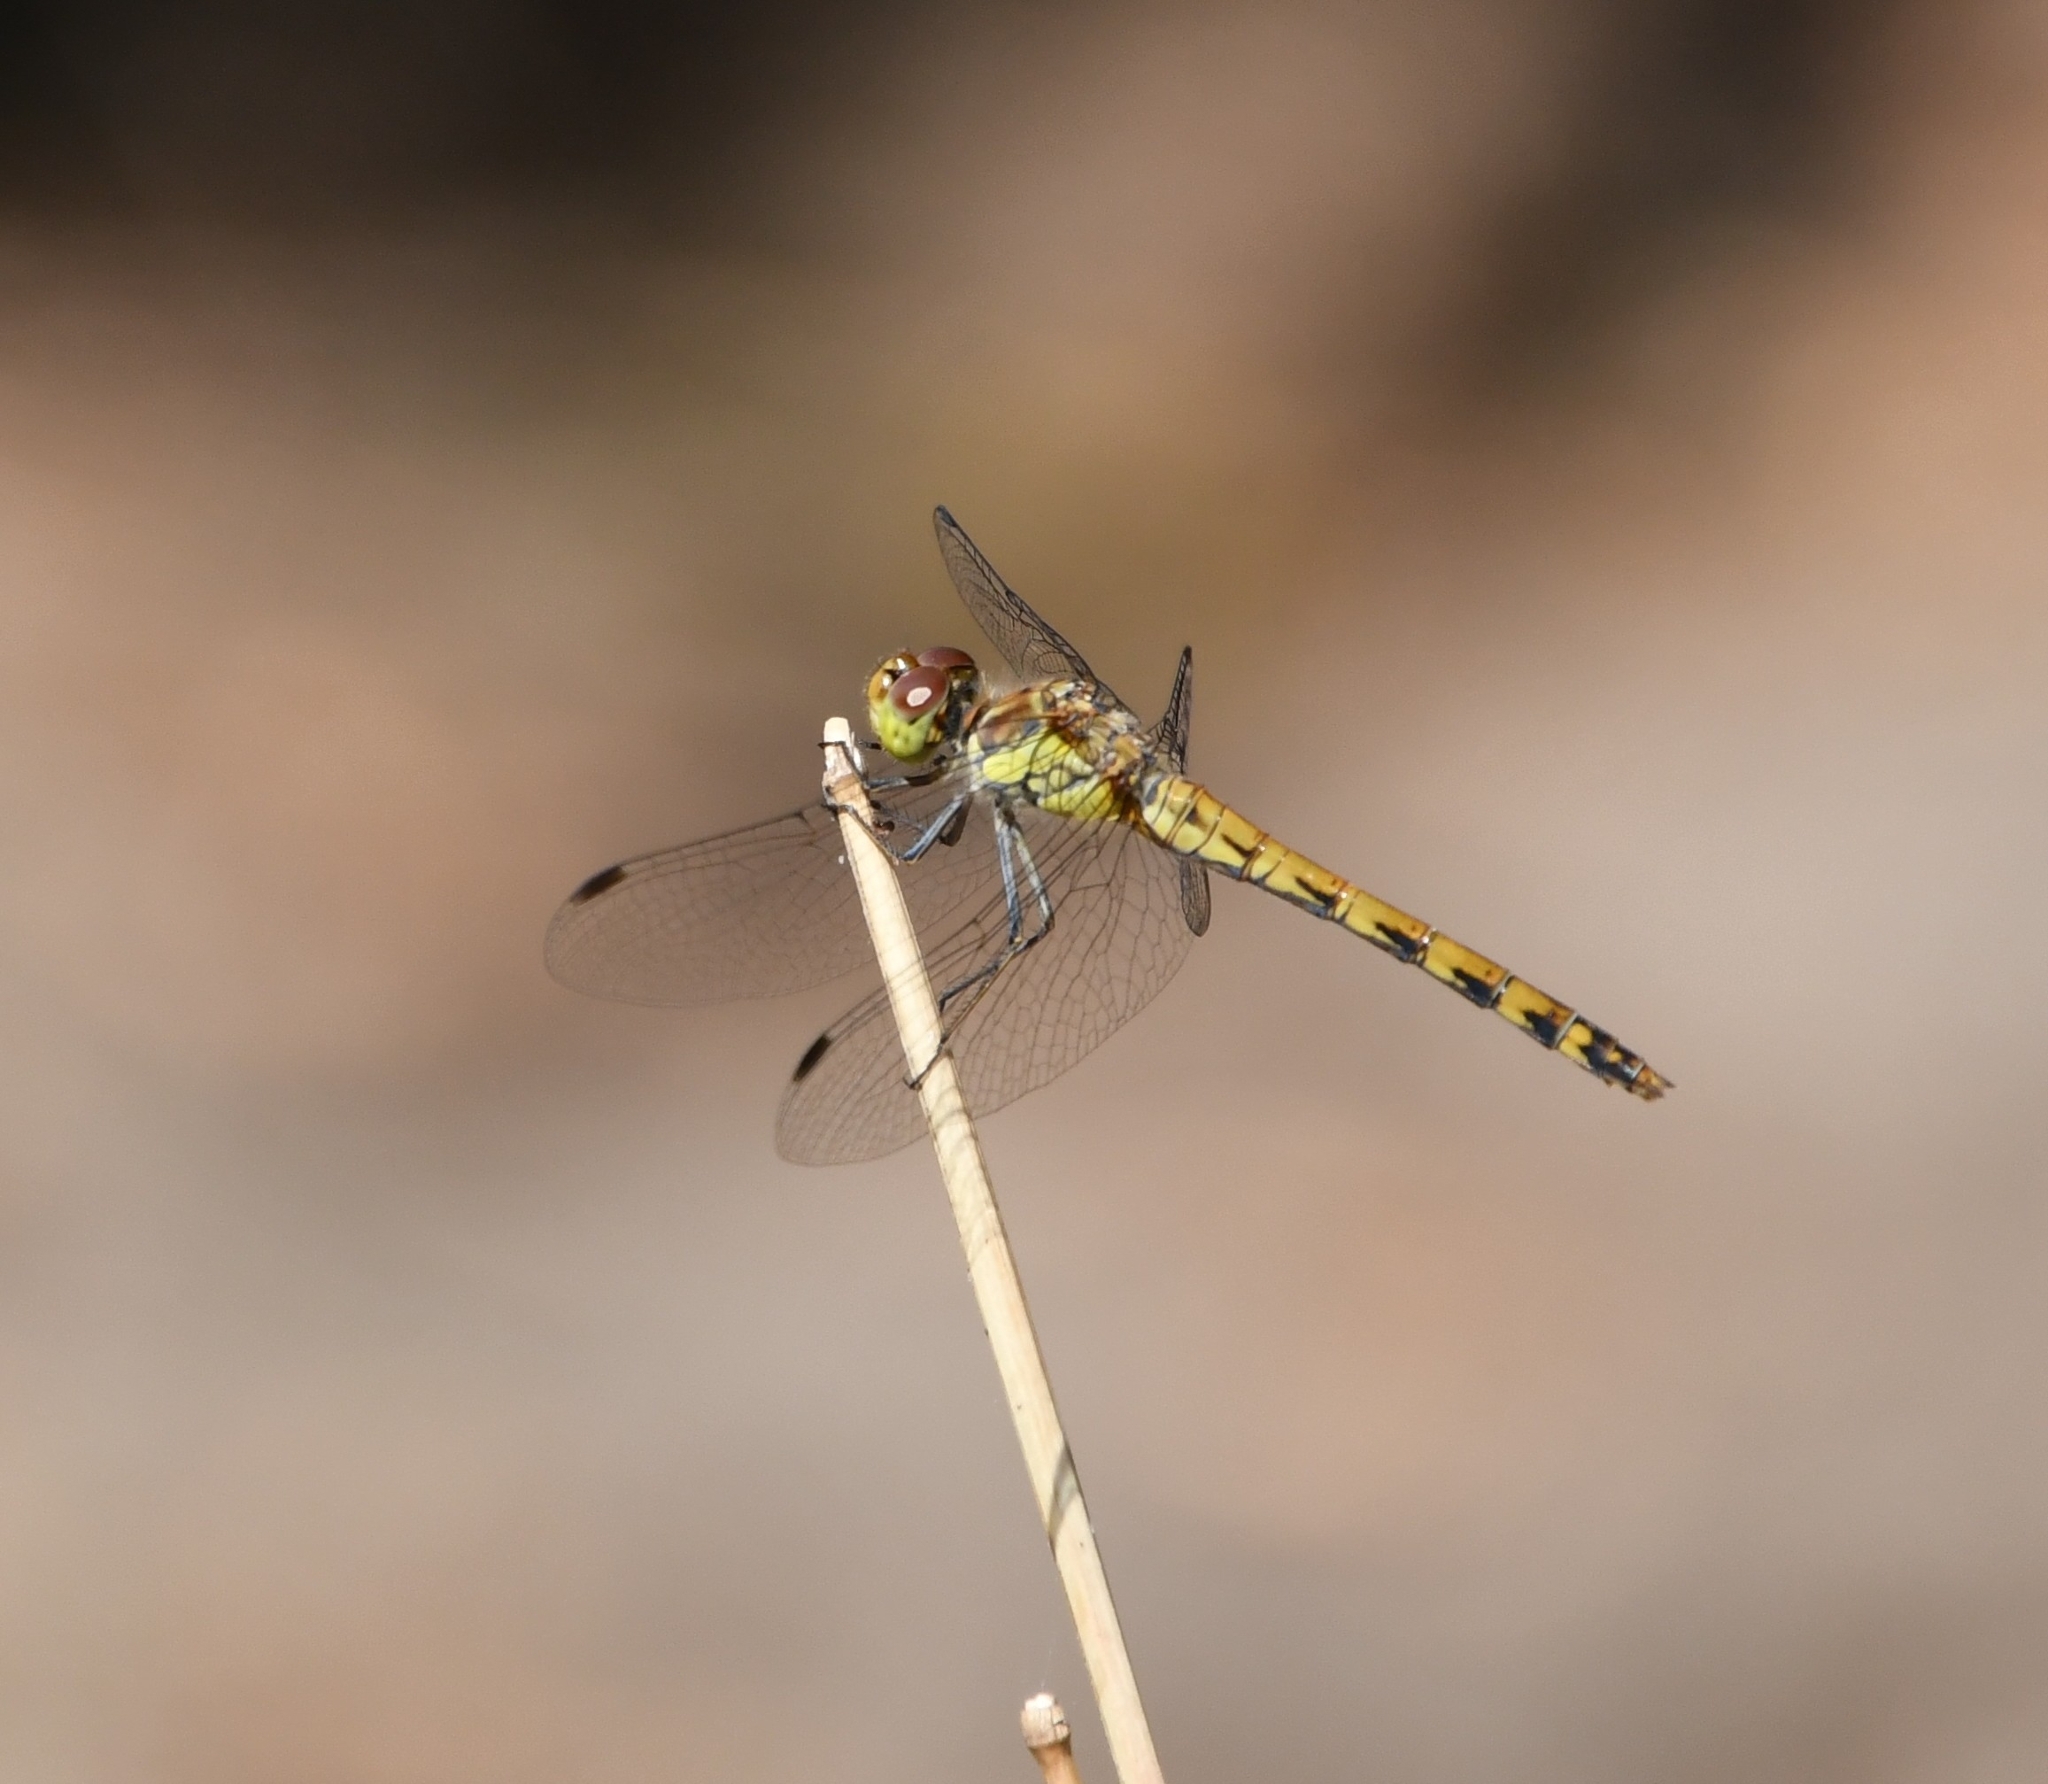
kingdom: Animalia
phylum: Arthropoda
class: Insecta
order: Odonata
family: Libellulidae
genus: Sympetrum
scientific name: Sympetrum striolatum
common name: Common darter
